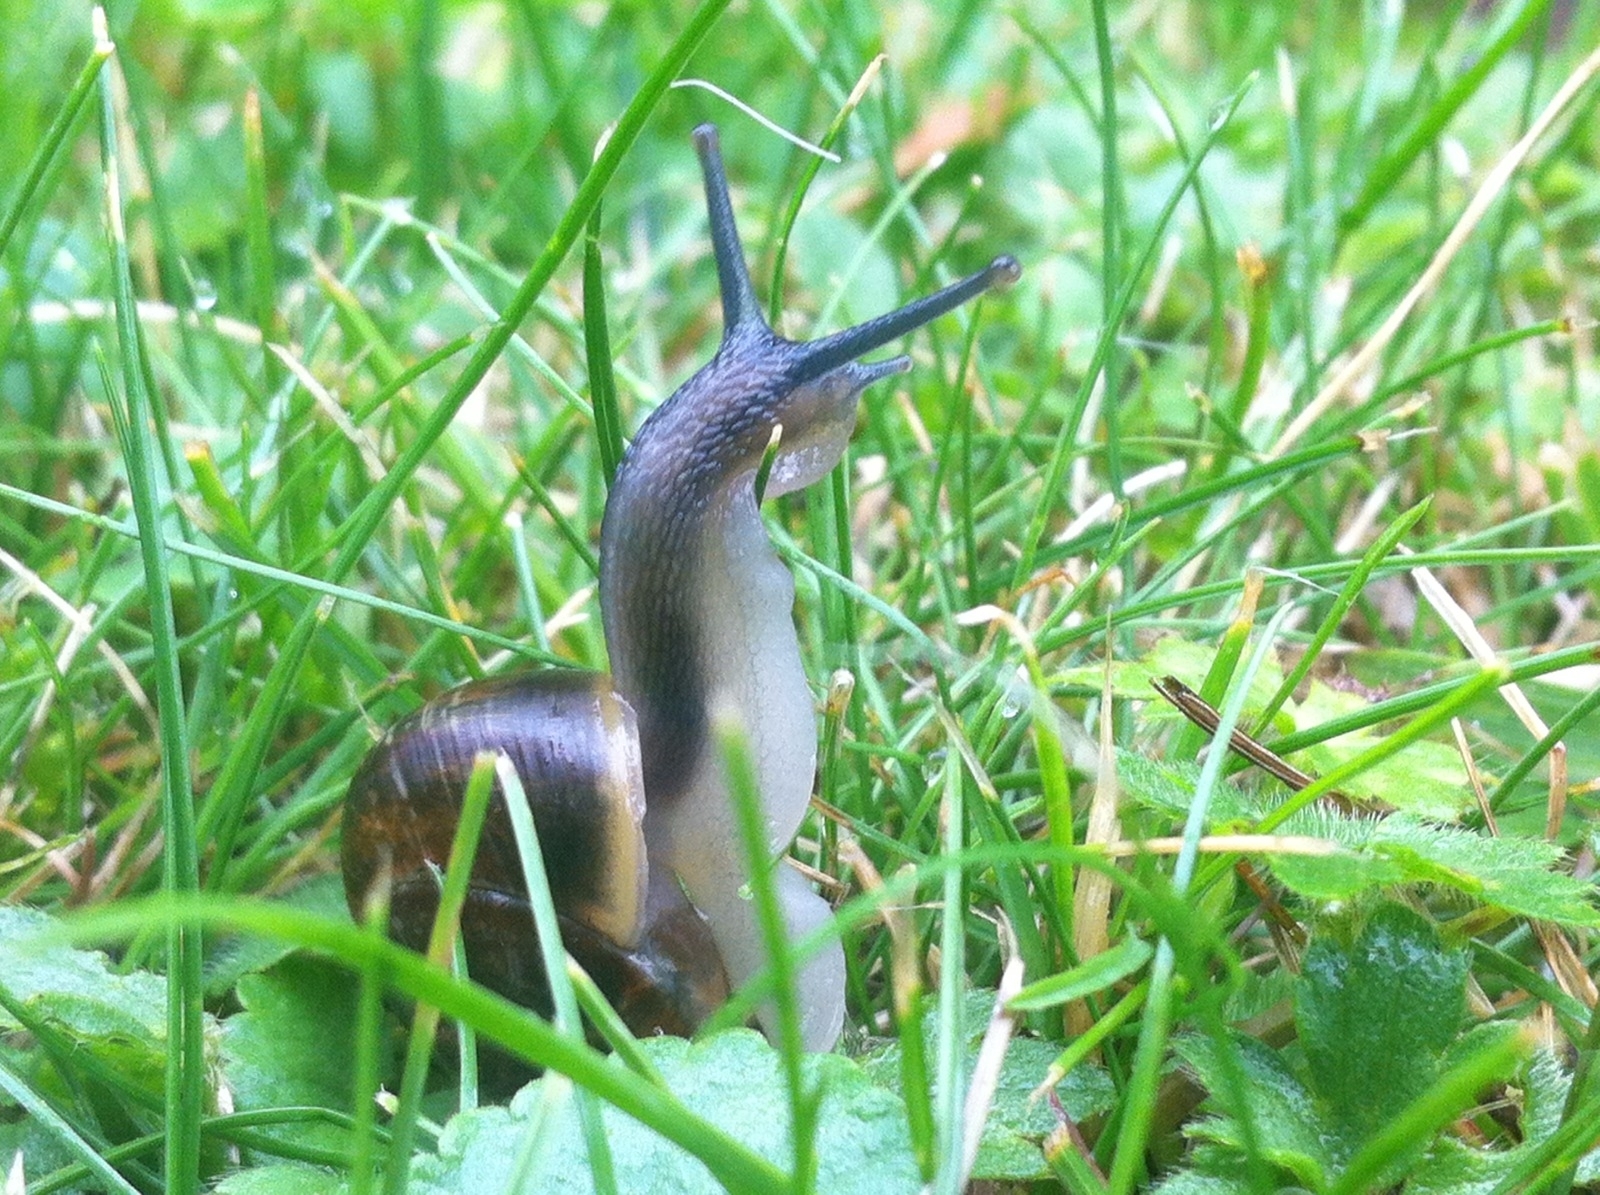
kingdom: Animalia
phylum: Mollusca
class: Gastropoda
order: Stylommatophora
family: Helicidae
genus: Arianta
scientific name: Arianta arbustorum
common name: Copse snail
